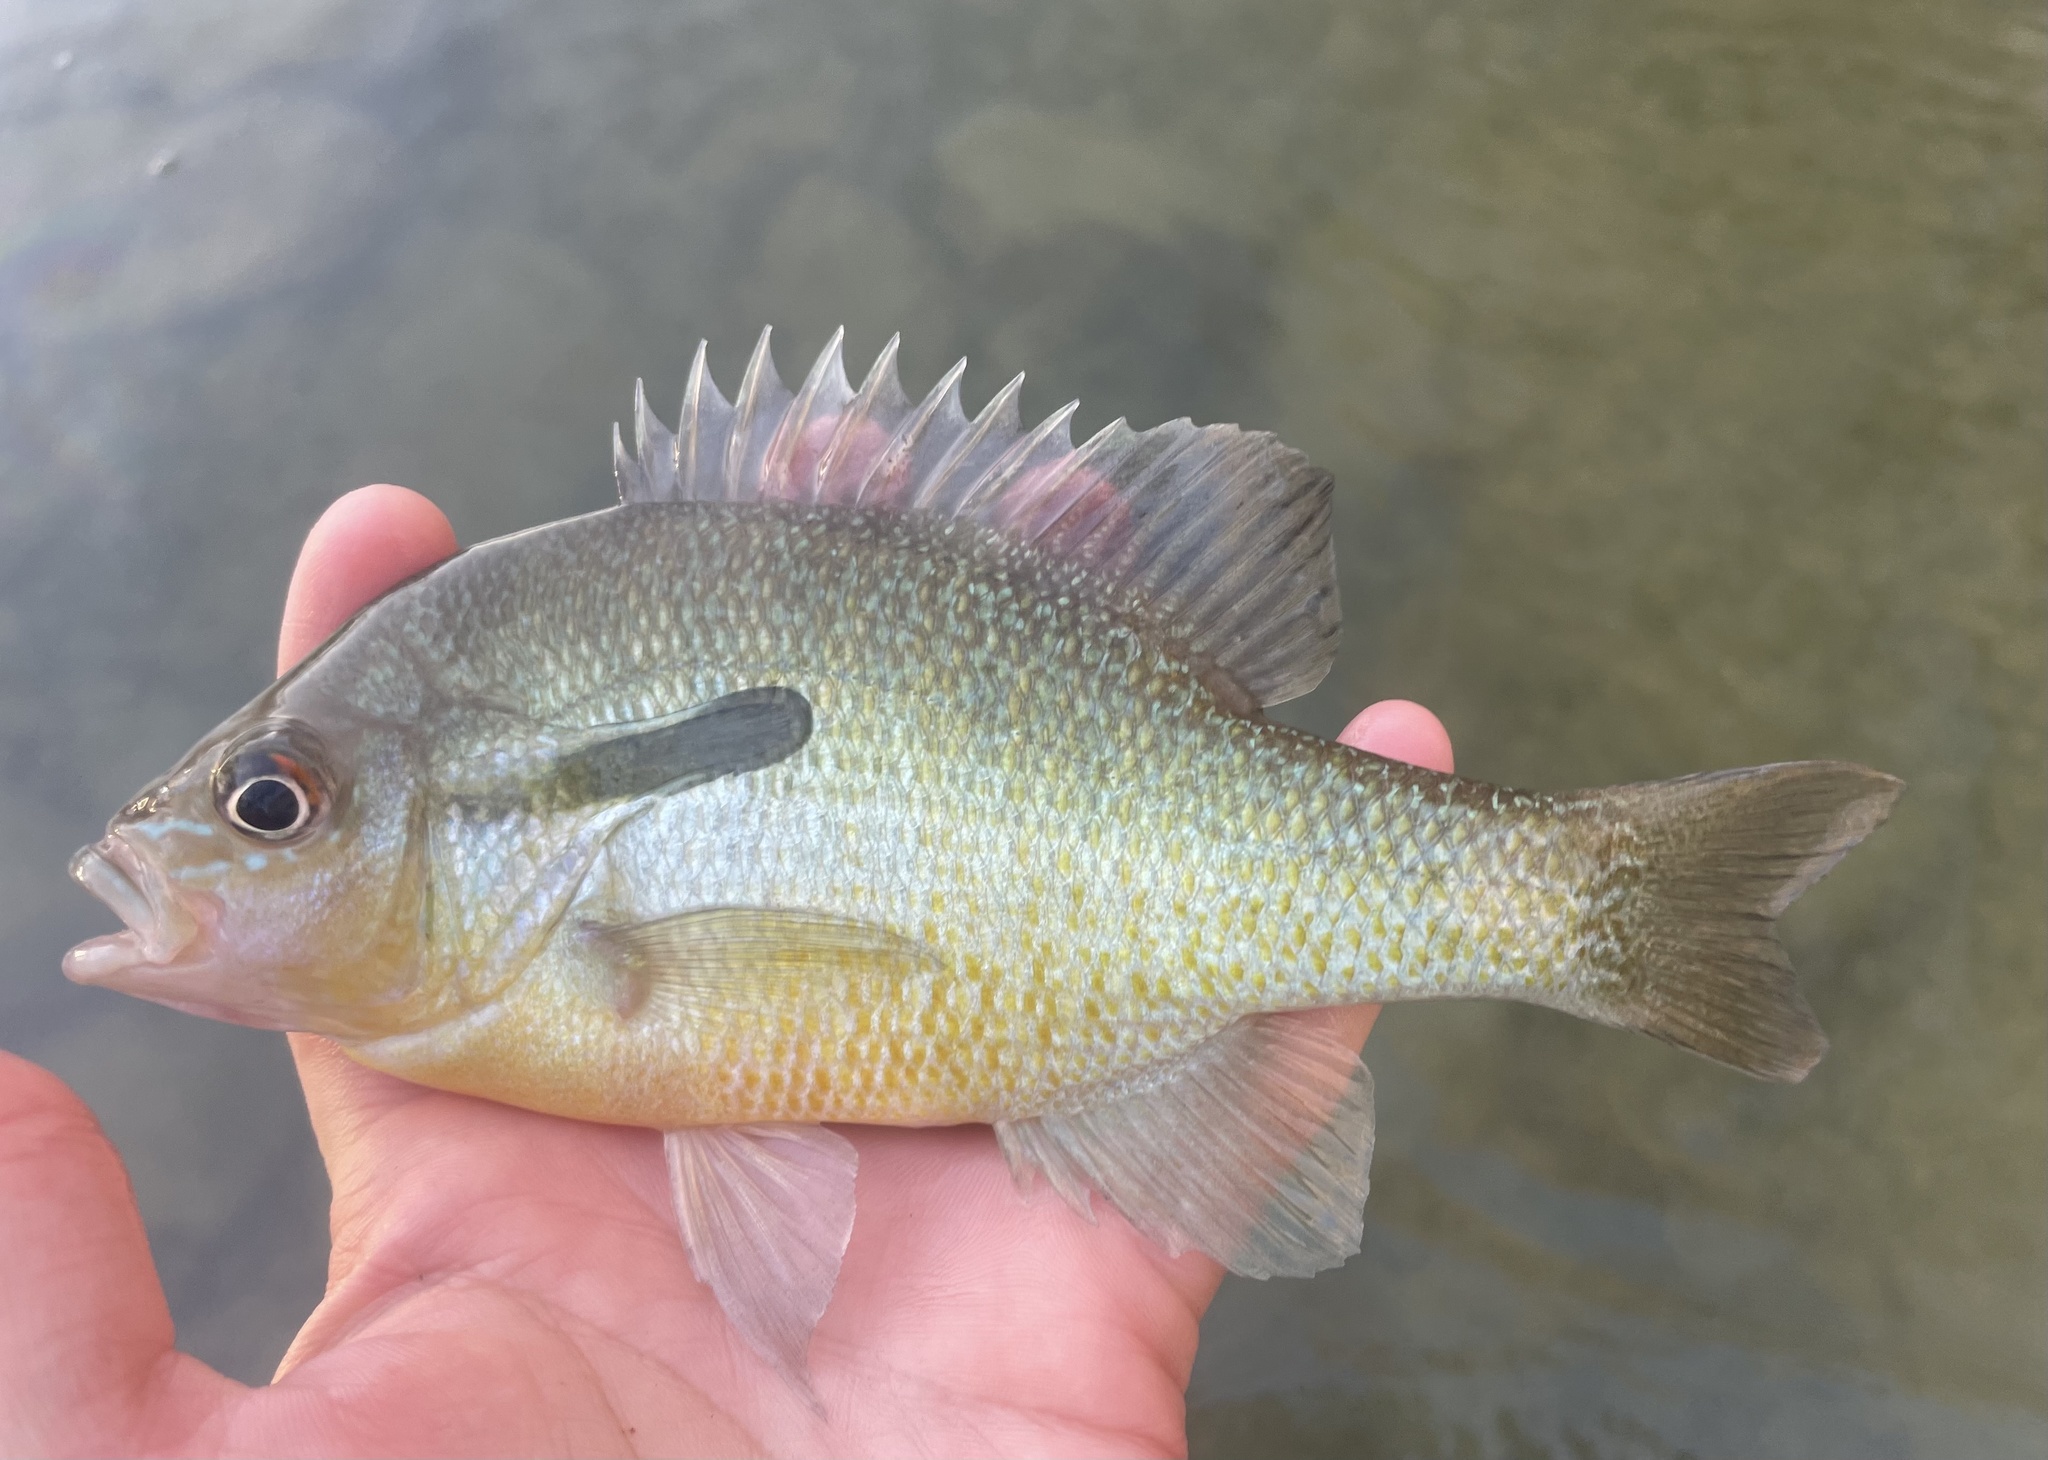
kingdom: Animalia
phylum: Chordata
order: Perciformes
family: Centrarchidae
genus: Lepomis
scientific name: Lepomis auritus
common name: Redbreast sunfish
